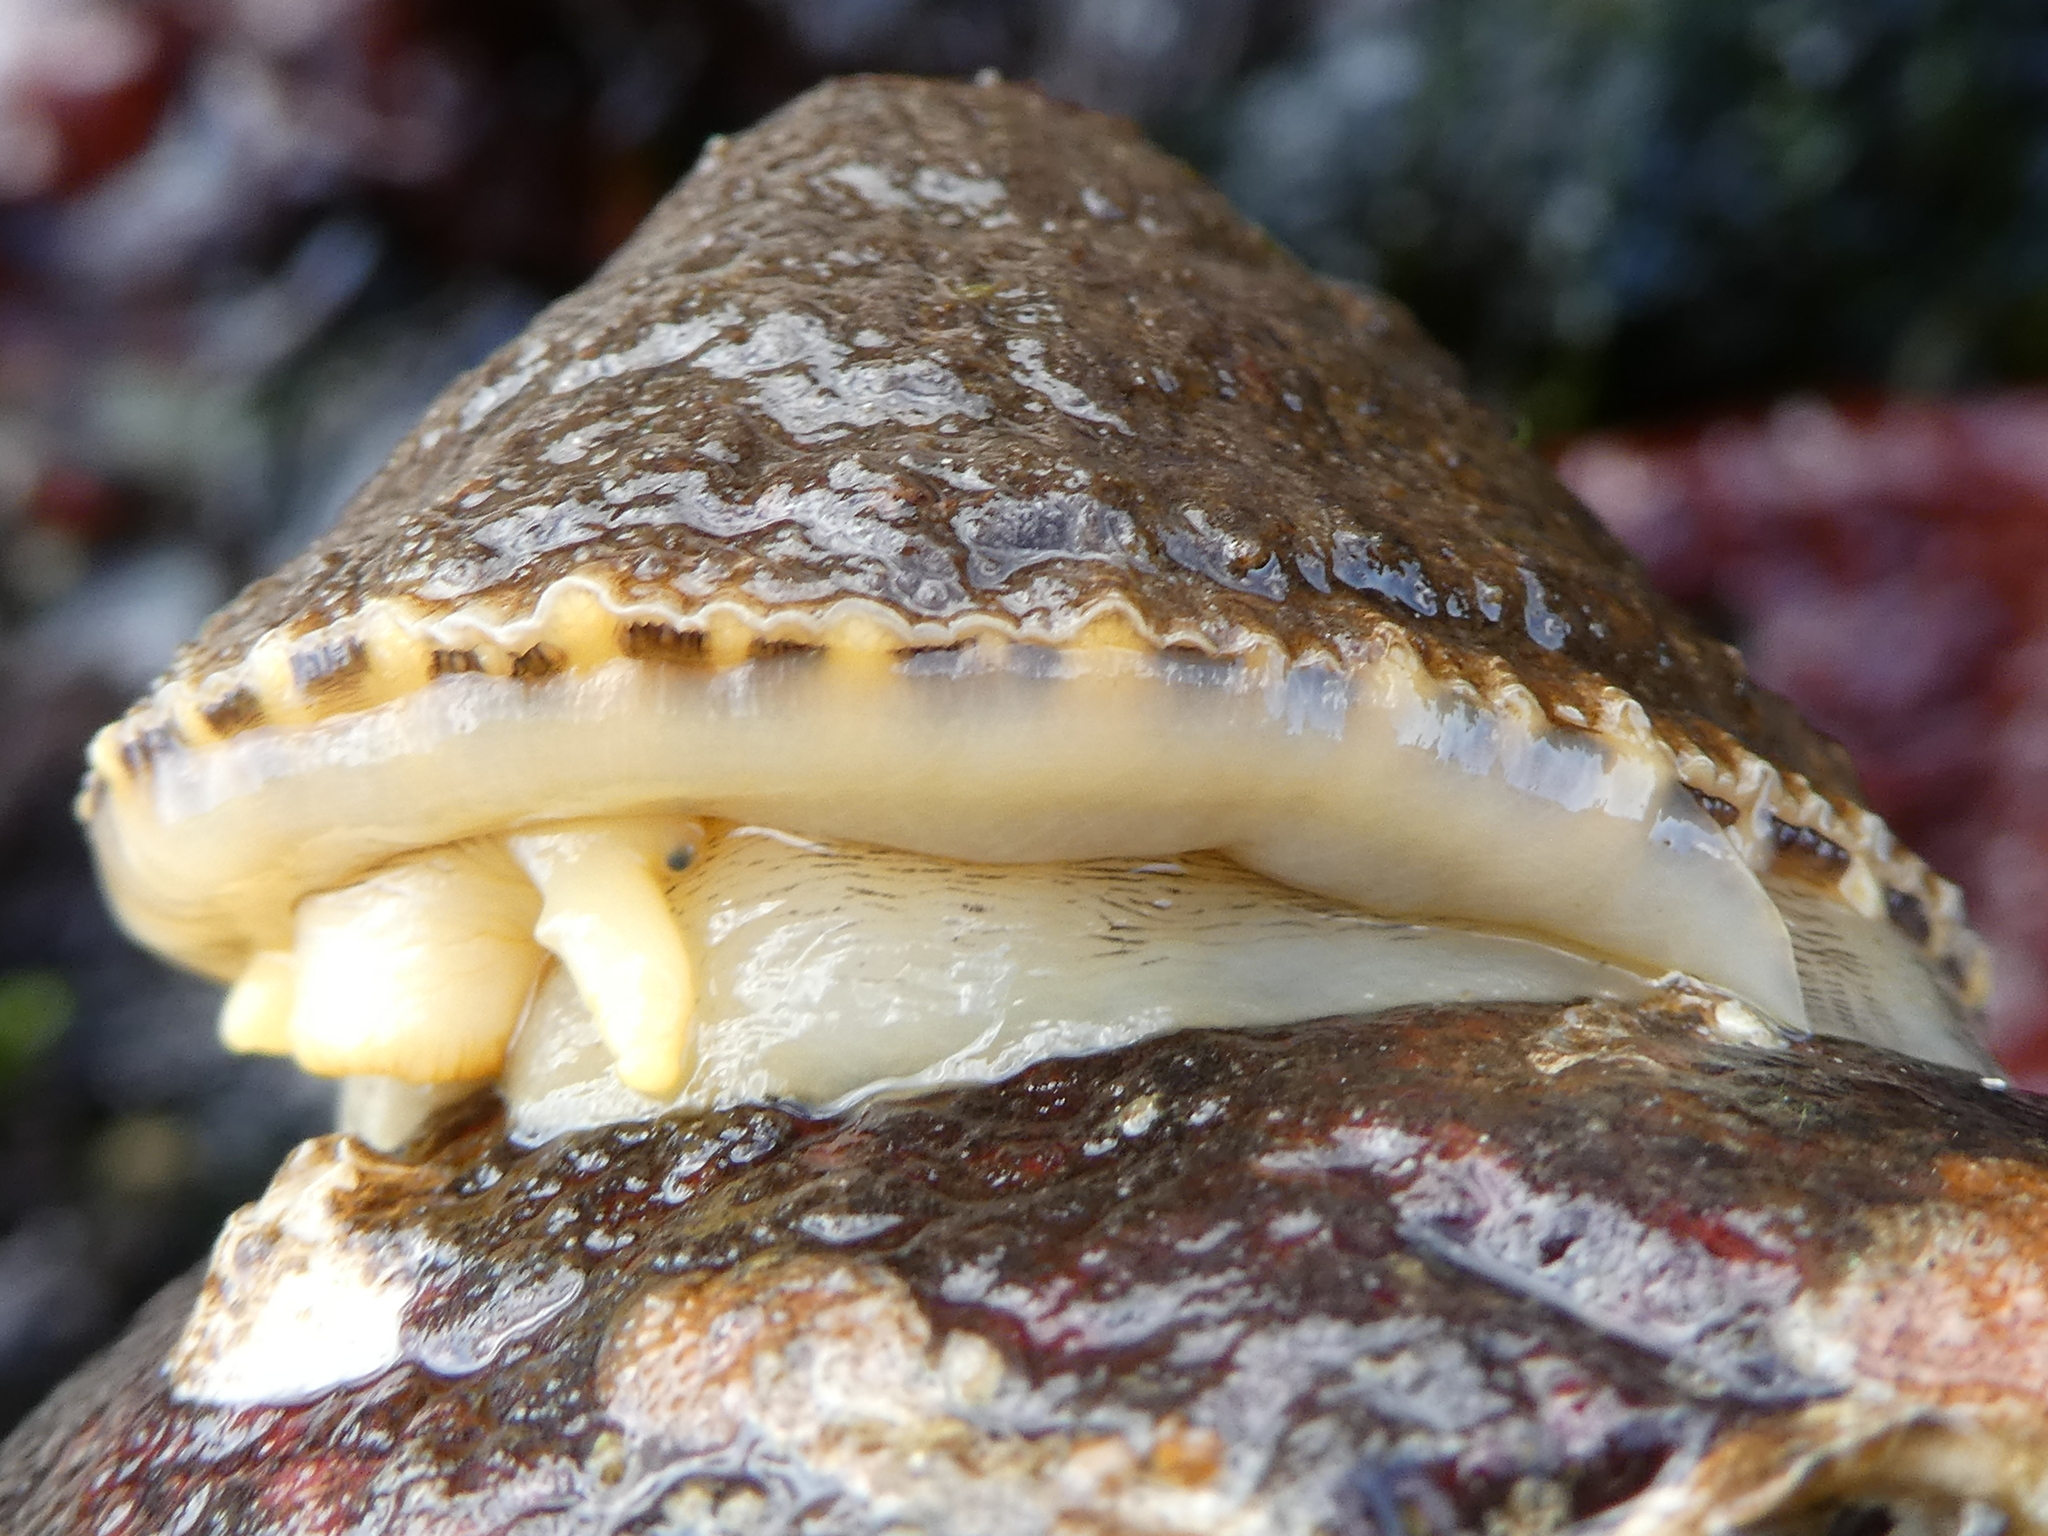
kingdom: Animalia
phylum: Mollusca
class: Gastropoda
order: Lepetellida
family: Fissurellidae
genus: Diodora
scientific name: Diodora aspera
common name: Rough keyhole limpet
